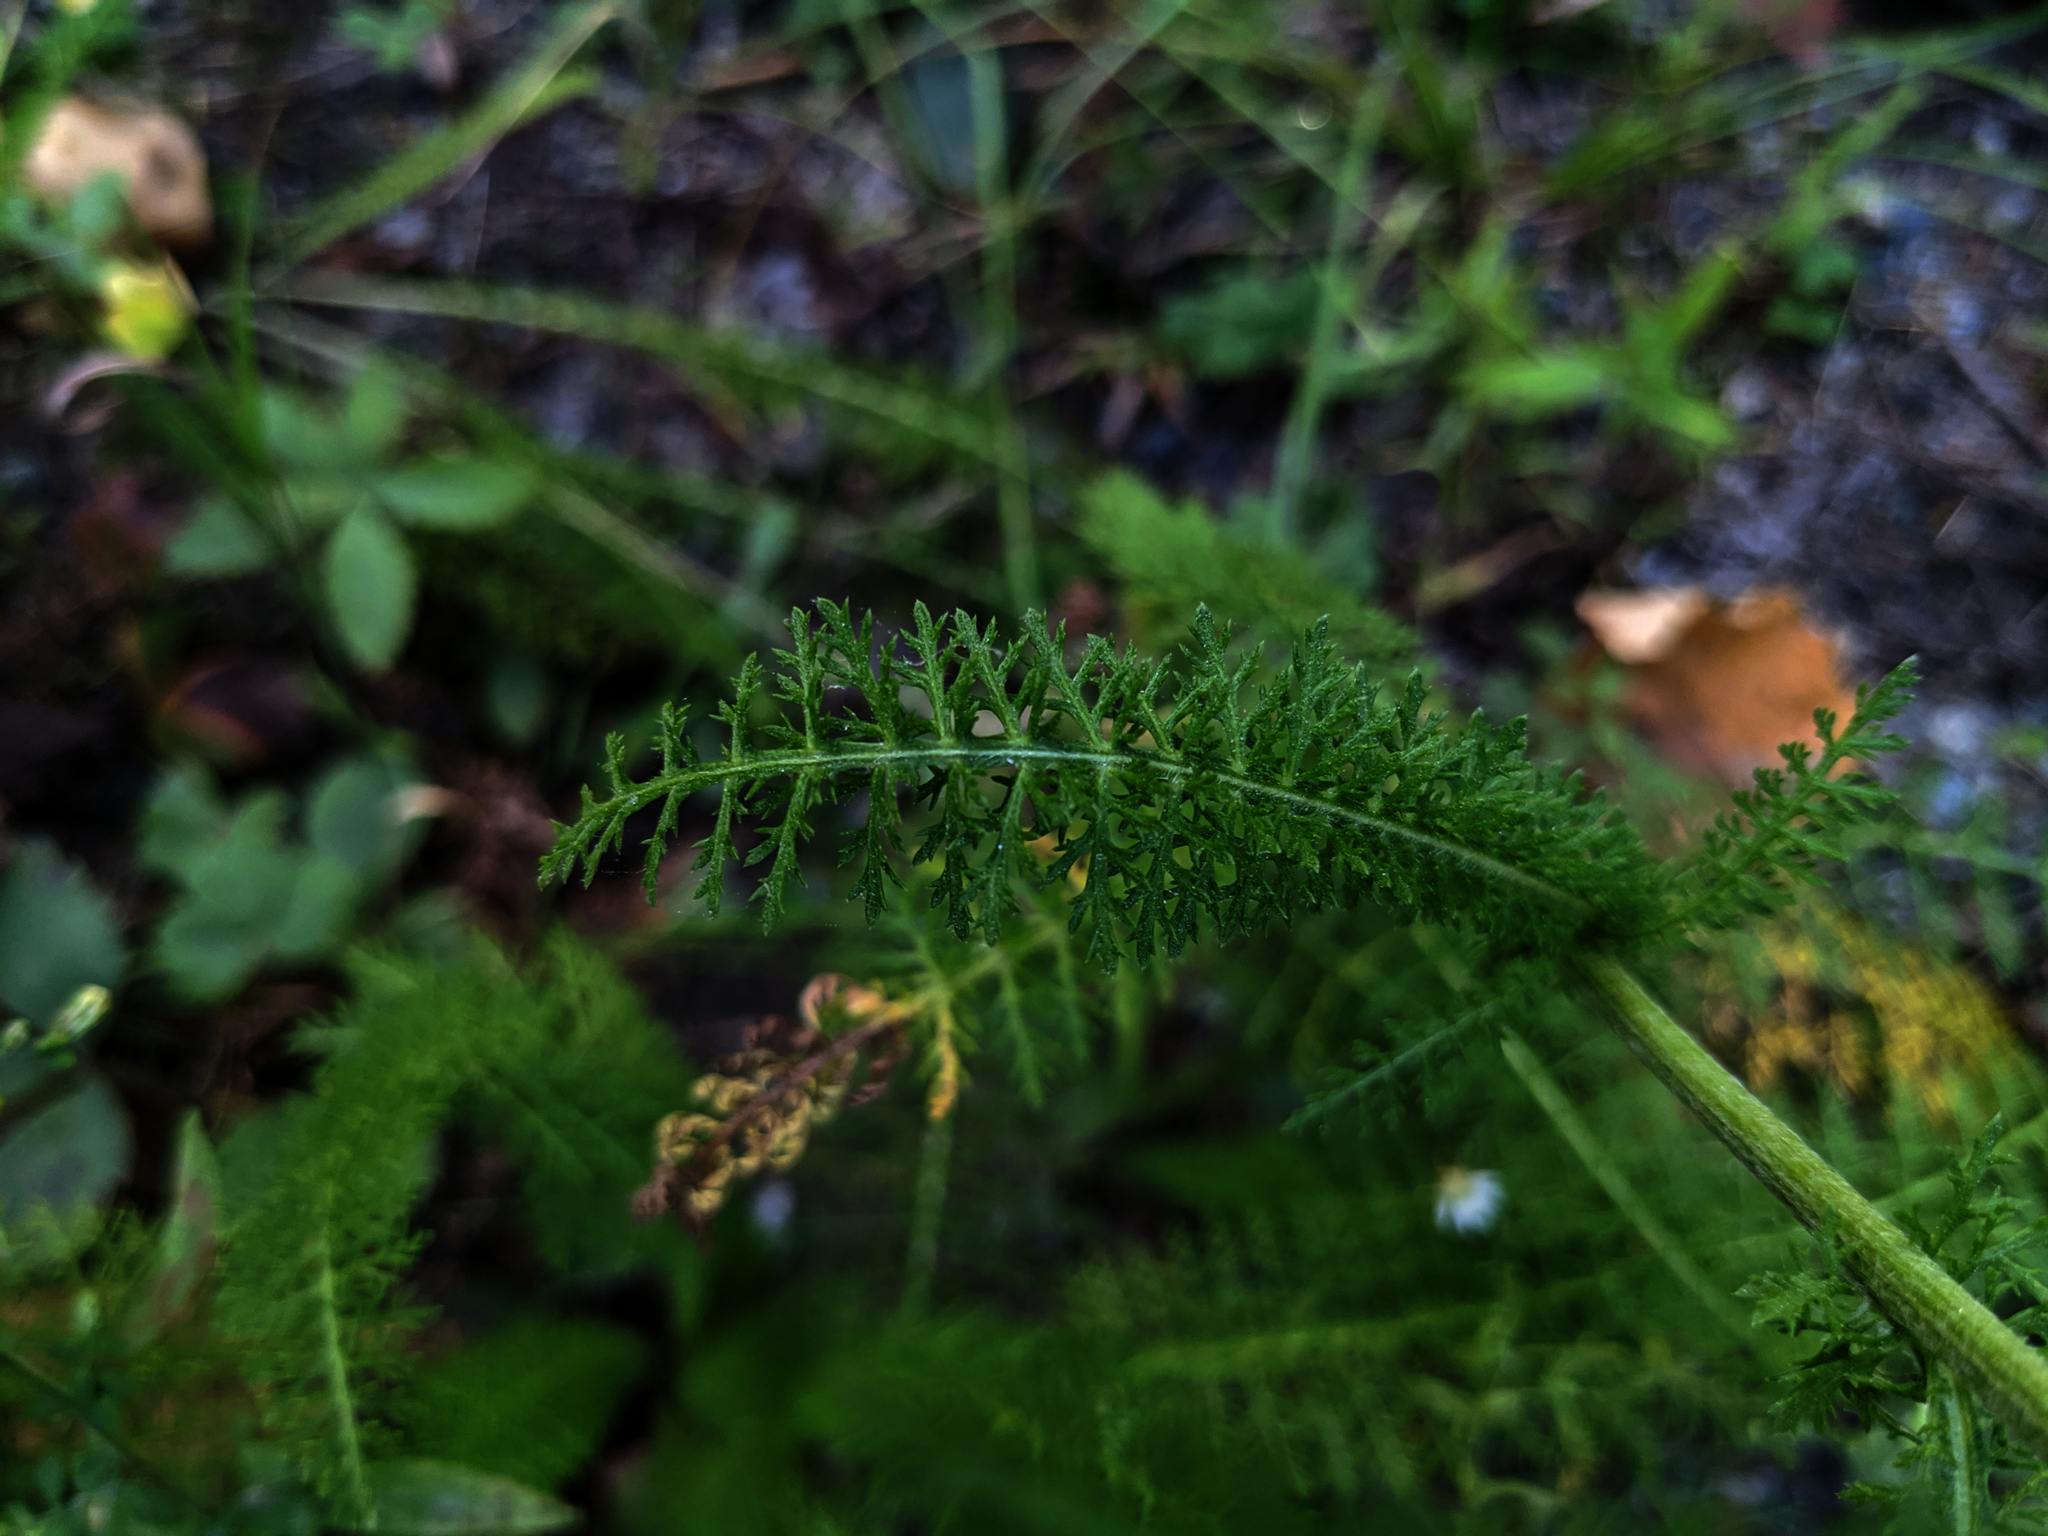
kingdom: Plantae
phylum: Tracheophyta
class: Magnoliopsida
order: Asterales
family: Asteraceae
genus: Achillea
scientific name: Achillea millefolium
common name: Yarrow
